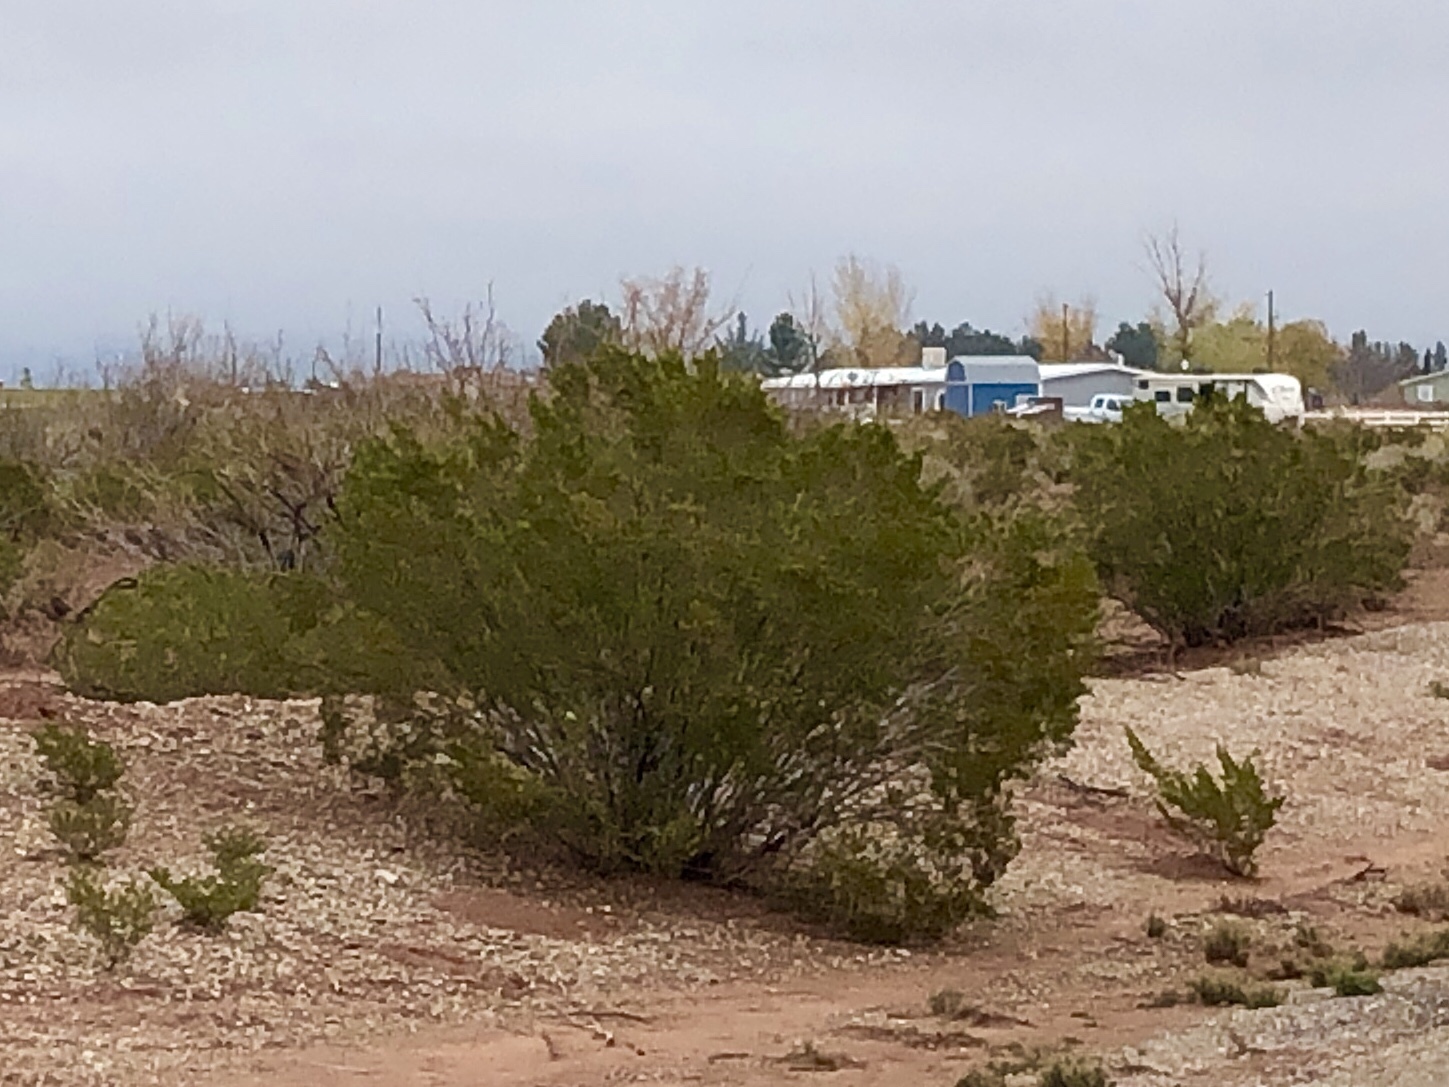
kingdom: Plantae
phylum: Tracheophyta
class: Magnoliopsida
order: Zygophyllales
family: Zygophyllaceae
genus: Larrea
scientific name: Larrea tridentata
